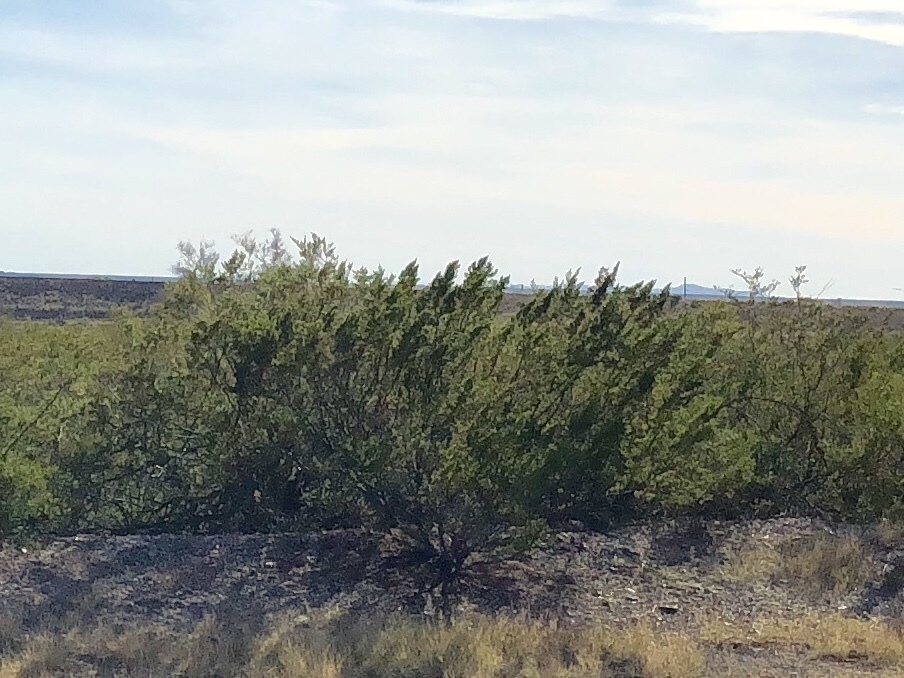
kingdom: Plantae
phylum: Tracheophyta
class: Magnoliopsida
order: Zygophyllales
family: Zygophyllaceae
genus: Larrea
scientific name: Larrea tridentata
